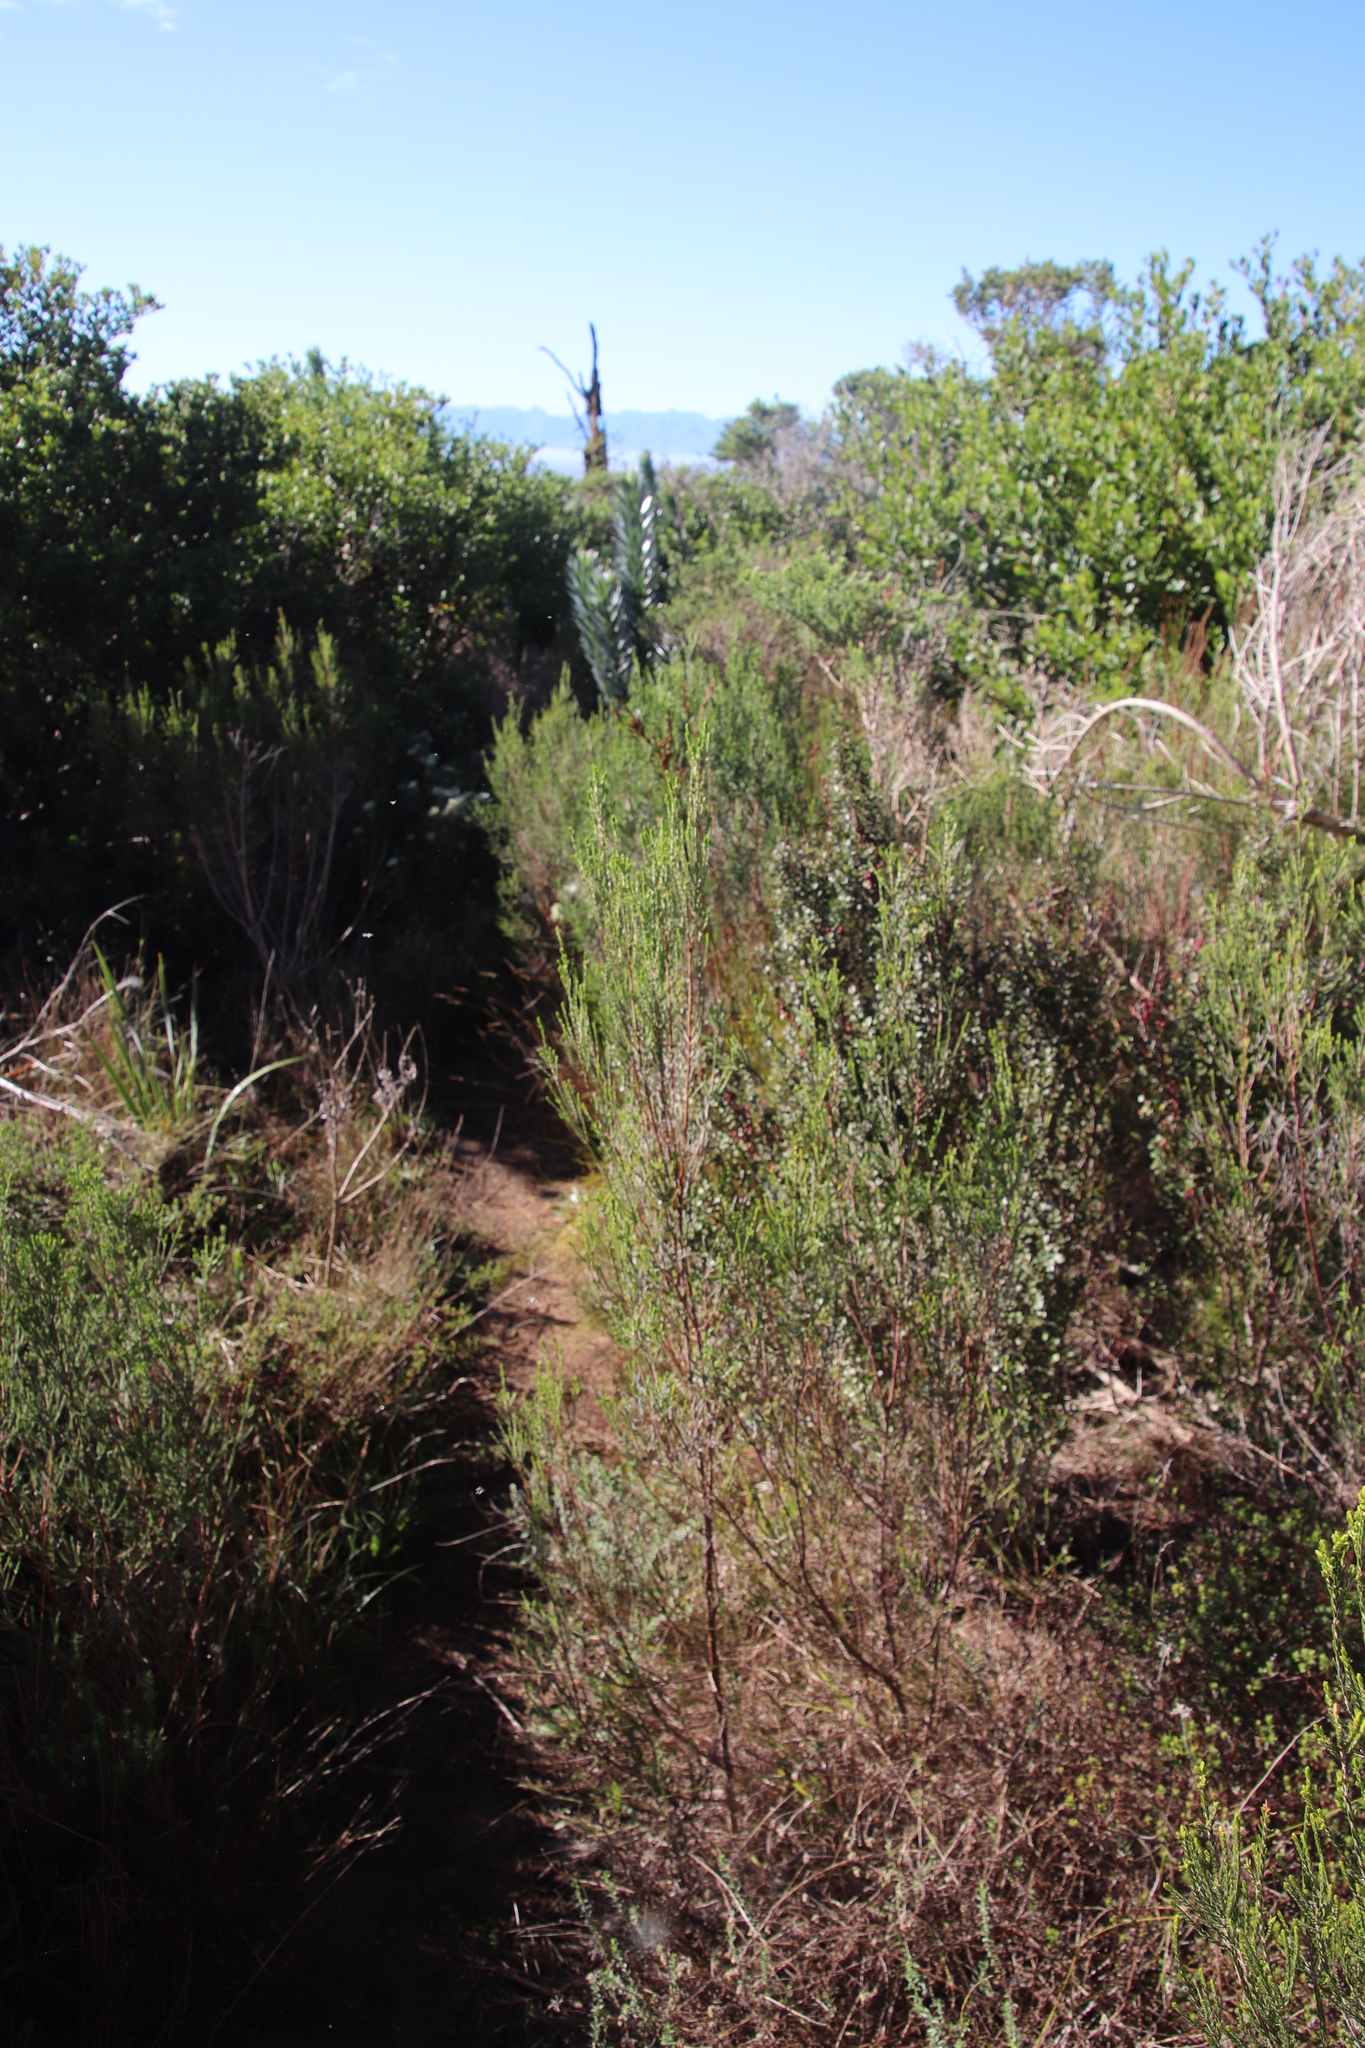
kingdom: Plantae
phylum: Tracheophyta
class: Magnoliopsida
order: Malvales
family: Thymelaeaceae
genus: Passerina
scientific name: Passerina corymbosa
